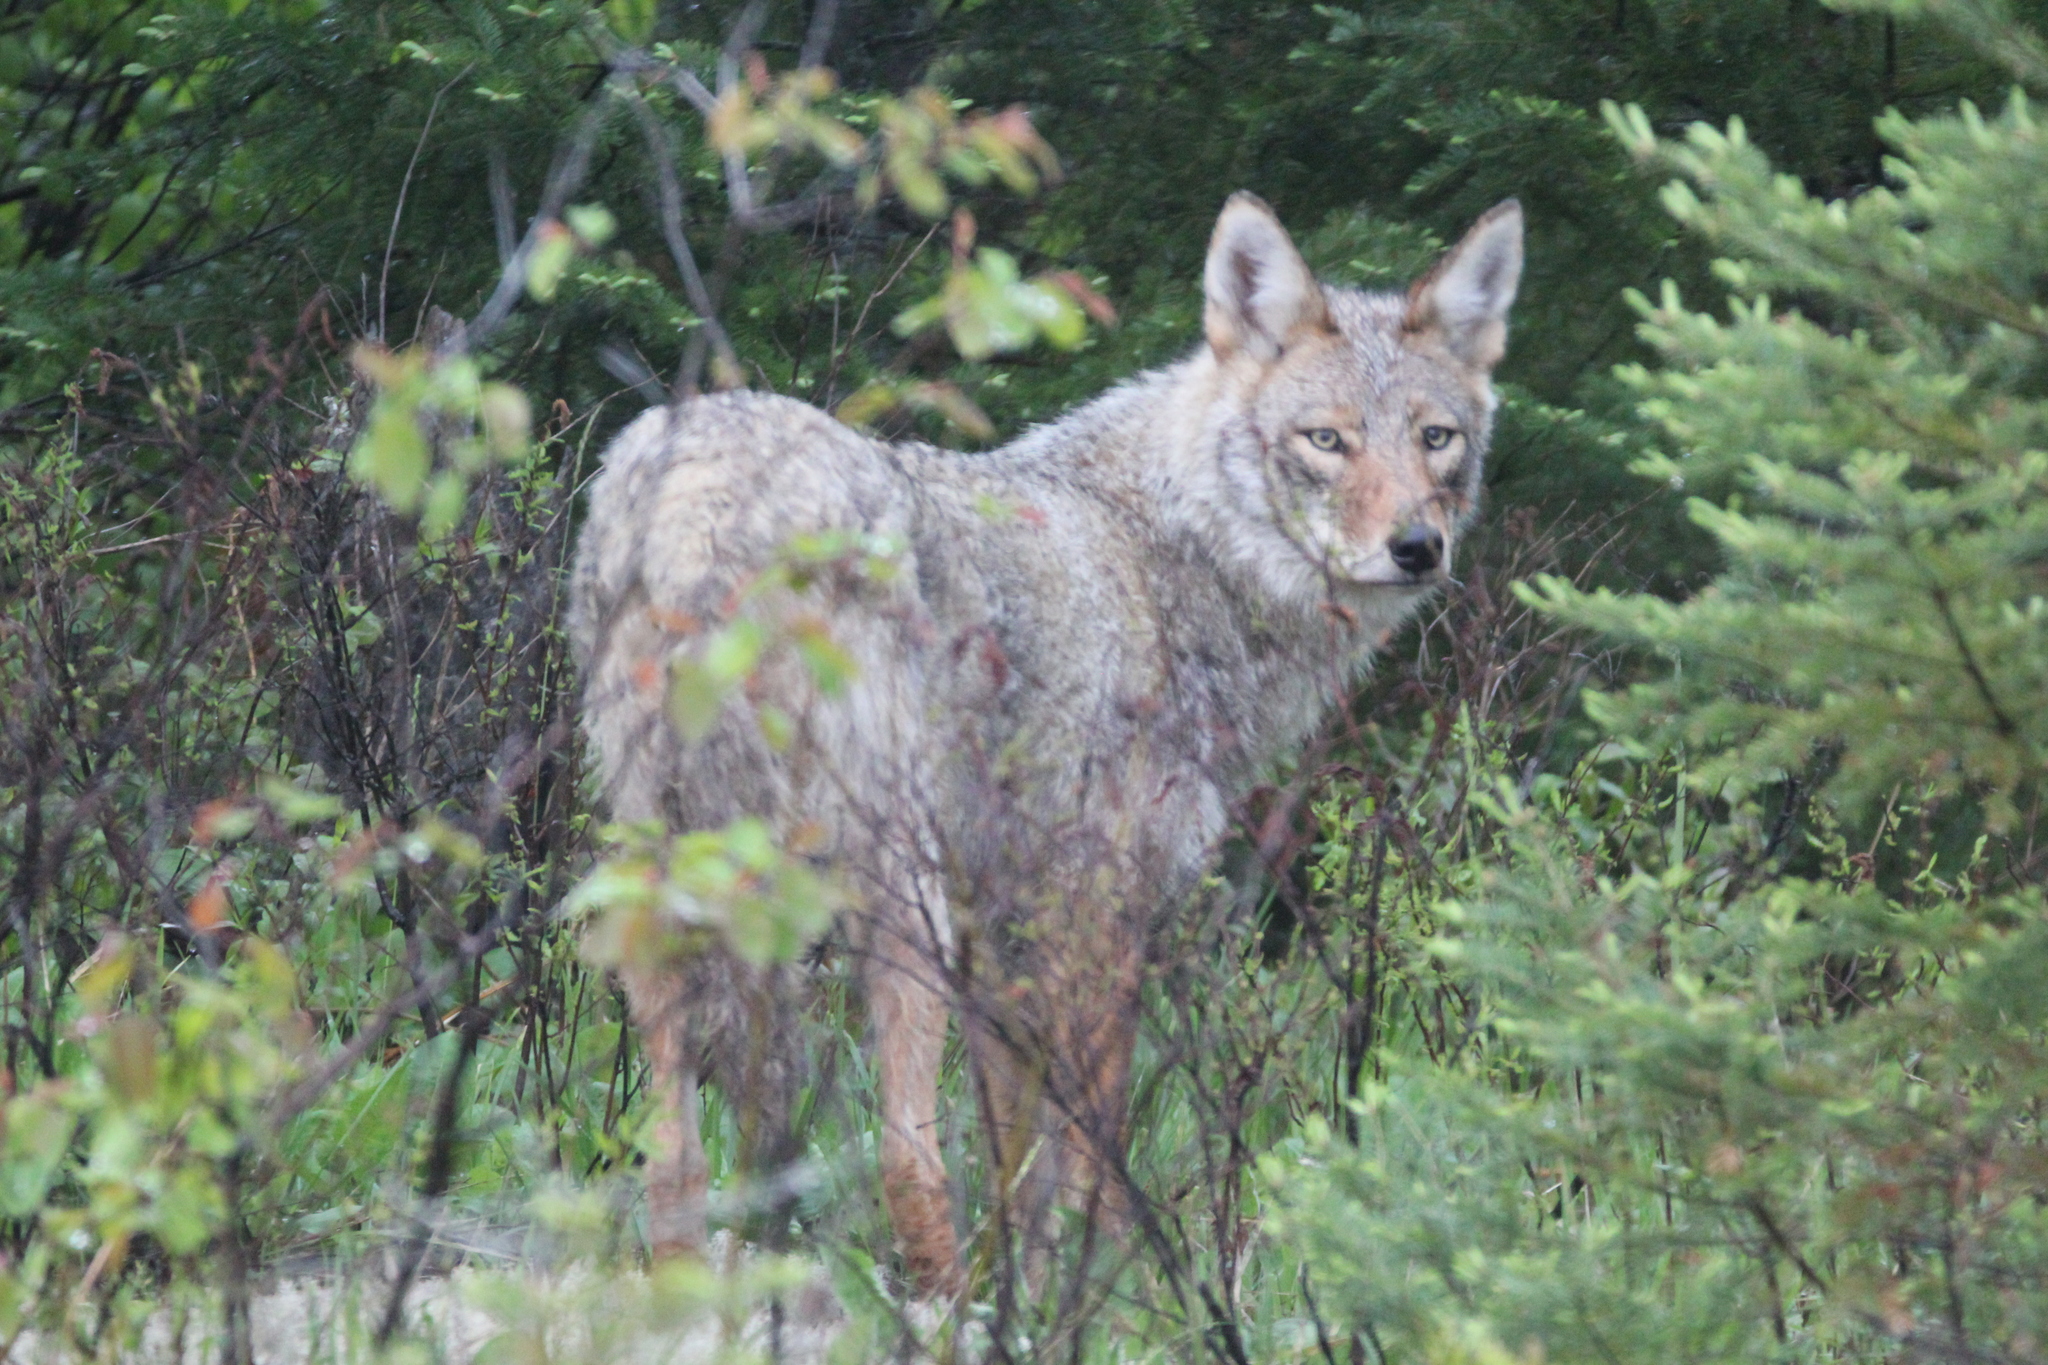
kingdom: Animalia
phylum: Chordata
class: Mammalia
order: Carnivora
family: Canidae
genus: Canis
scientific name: Canis lycaon
